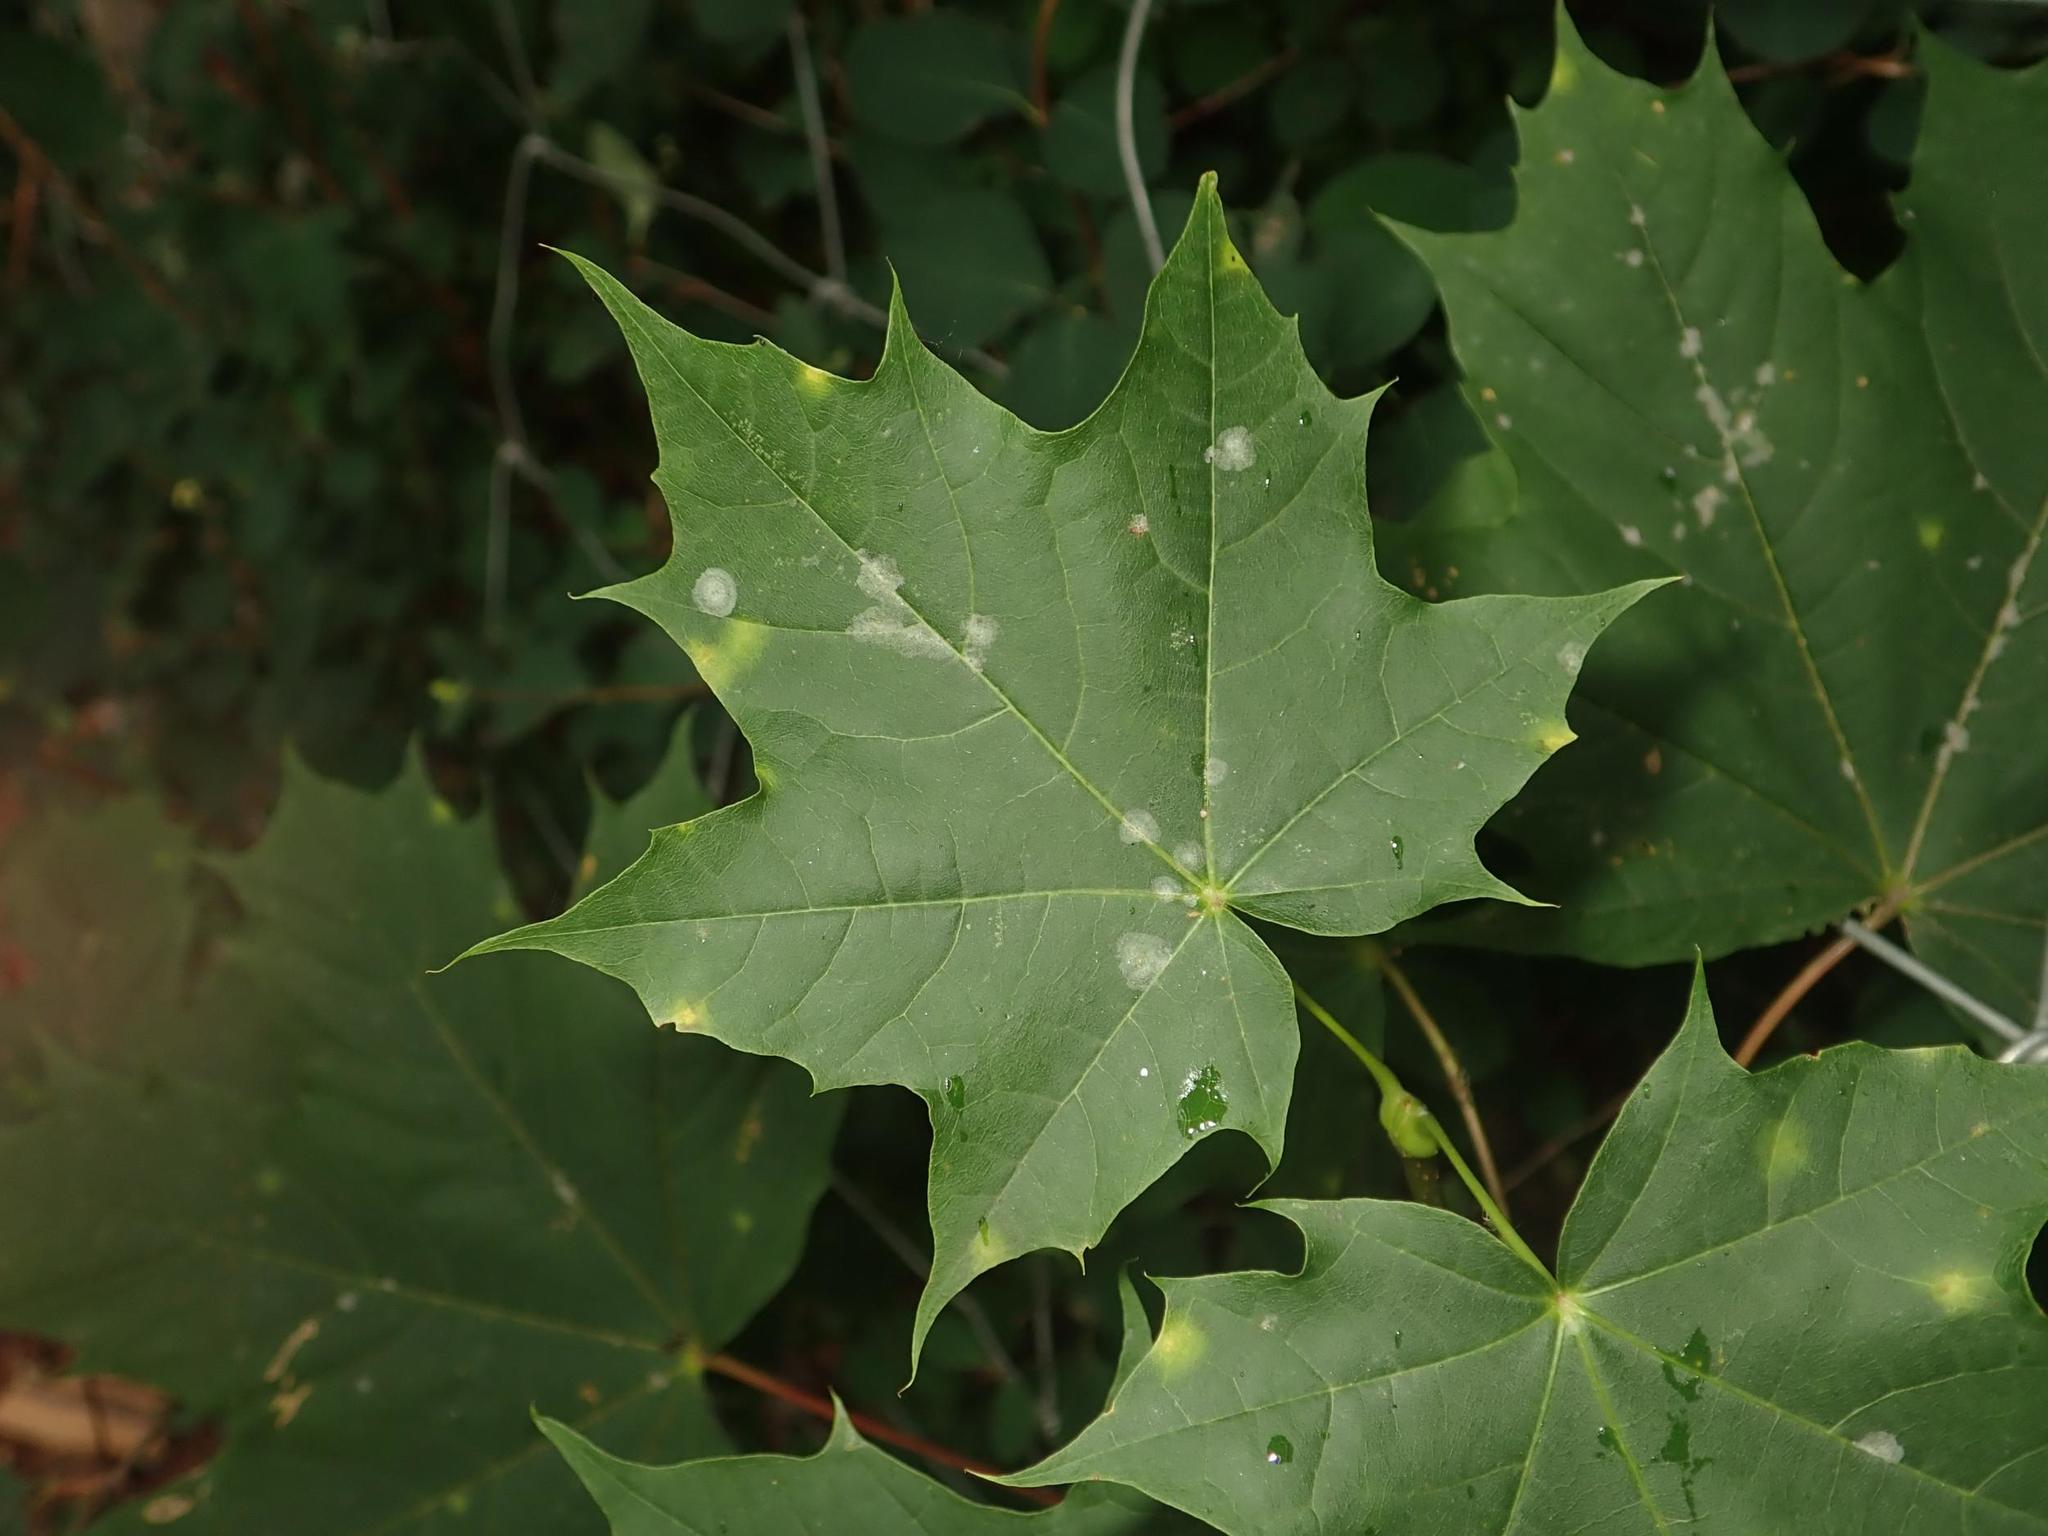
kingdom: Plantae
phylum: Tracheophyta
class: Magnoliopsida
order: Sapindales
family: Sapindaceae
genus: Acer
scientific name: Acer platanoides
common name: Norway maple
